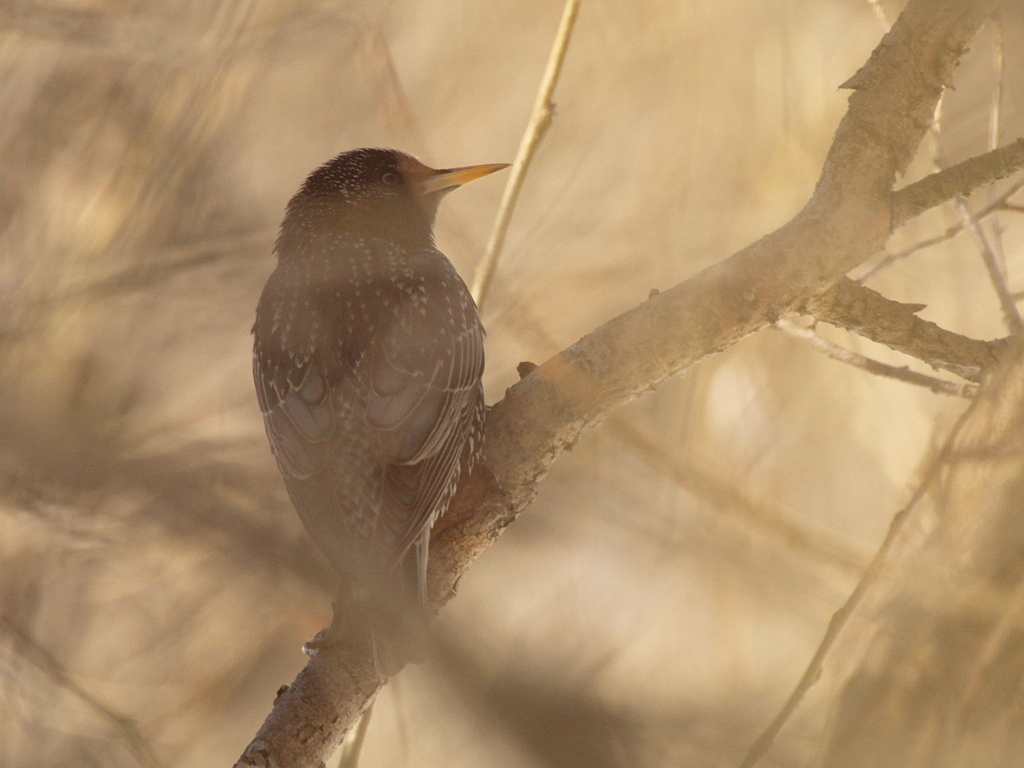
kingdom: Animalia
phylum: Chordata
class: Aves
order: Passeriformes
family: Sturnidae
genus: Sturnus
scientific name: Sturnus vulgaris
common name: Common starling
